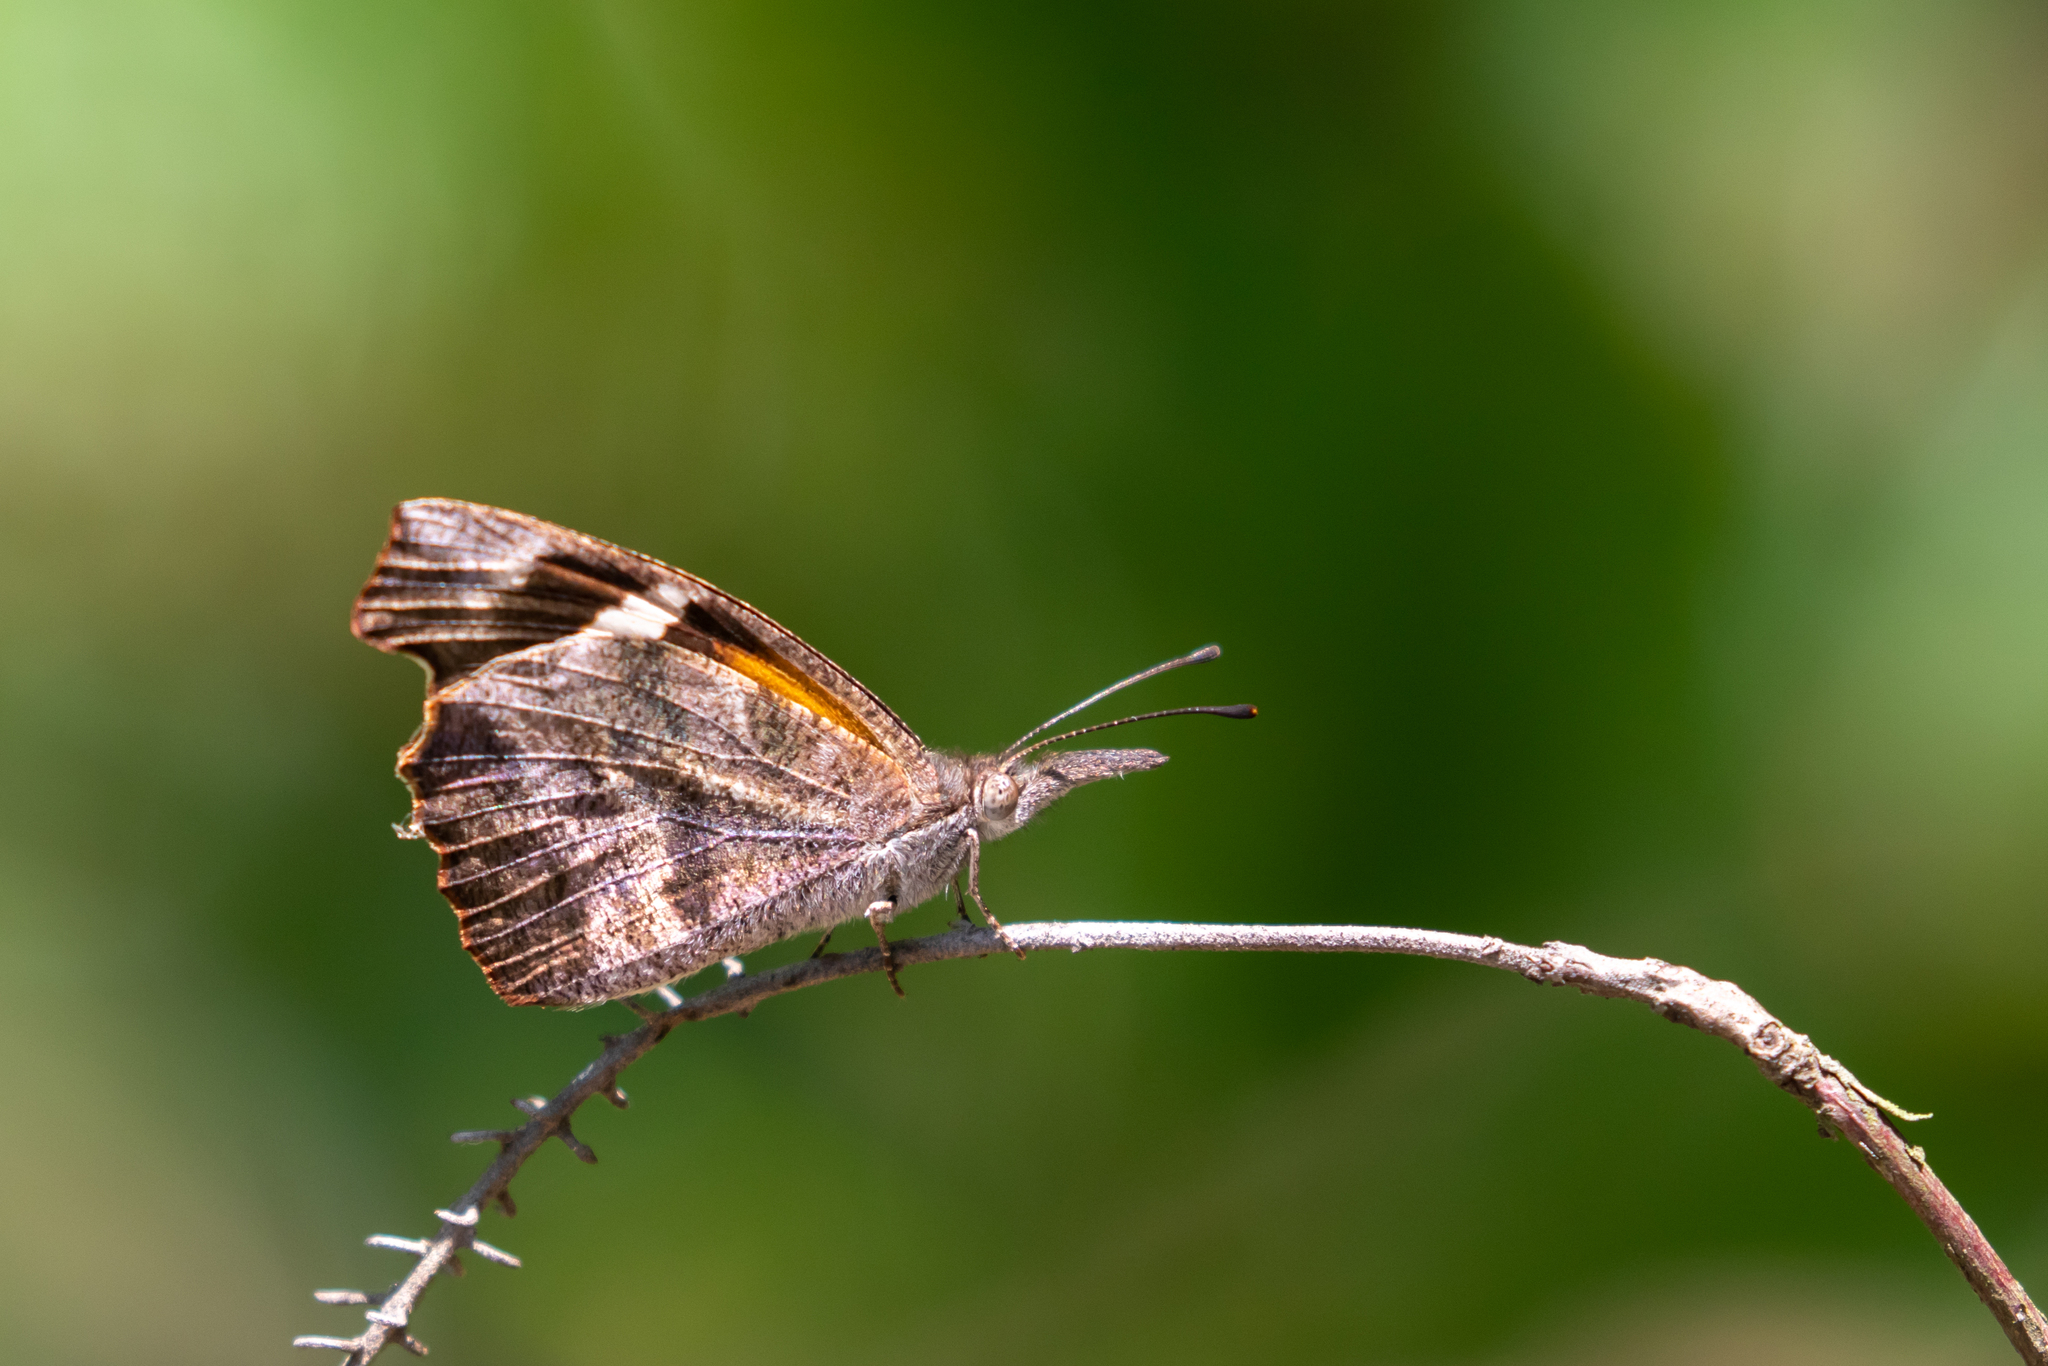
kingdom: Animalia
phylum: Arthropoda
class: Insecta
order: Lepidoptera
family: Nymphalidae
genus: Libytheana
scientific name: Libytheana carinenta
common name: American snout
